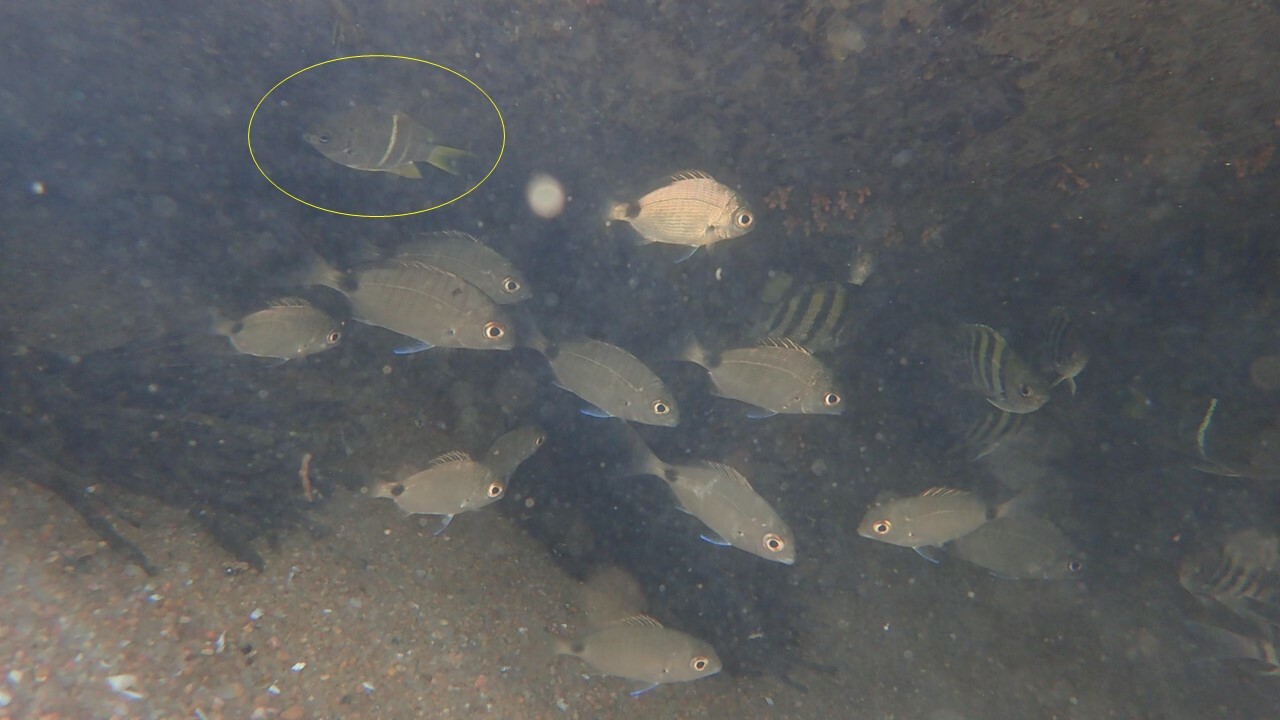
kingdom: Animalia
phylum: Chordata
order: Perciformes
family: Pomacentridae
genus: Abudefduf
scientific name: Abudefduf notatus
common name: Yellow-tail sergeant
